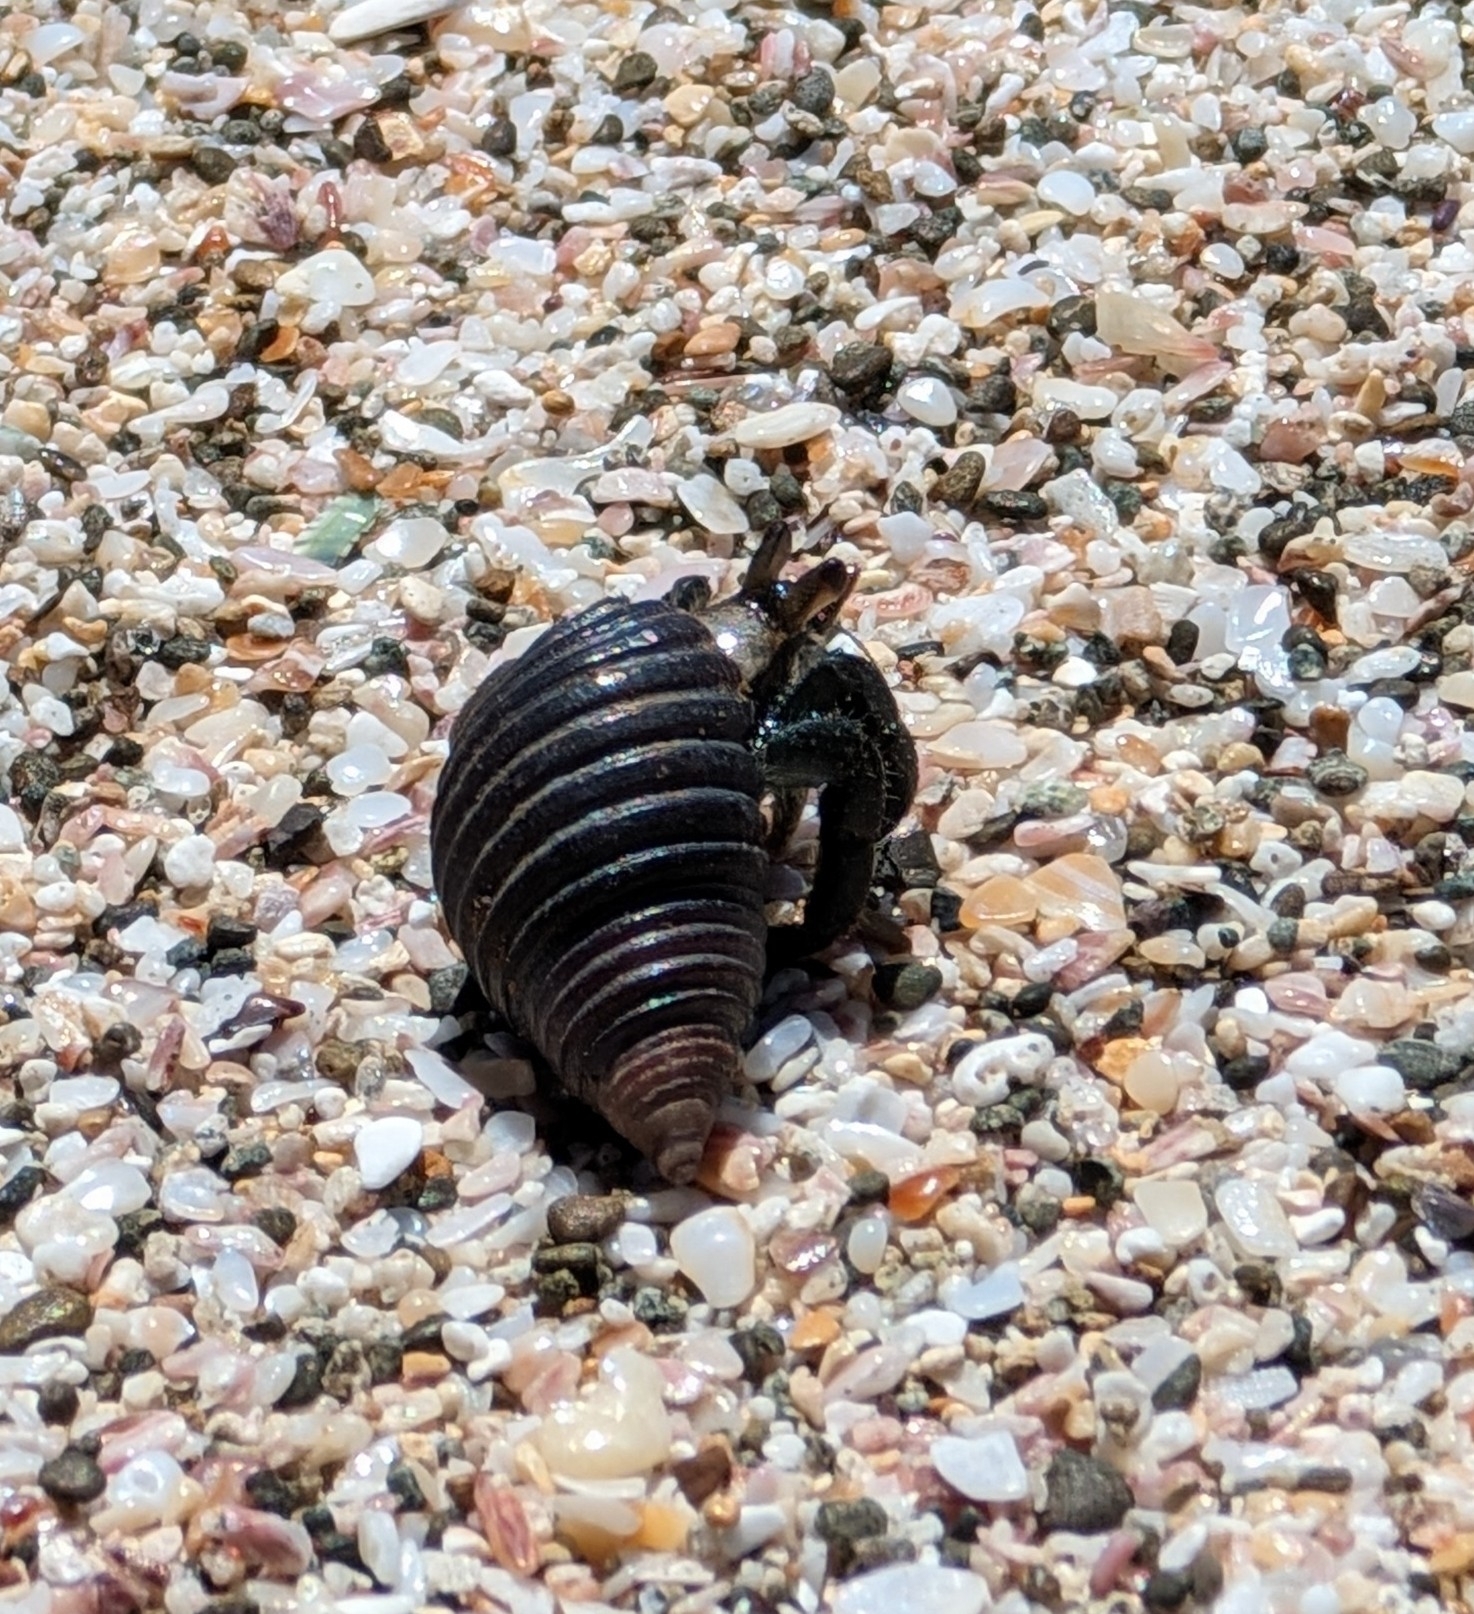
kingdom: Animalia
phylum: Arthropoda
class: Malacostraca
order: Decapoda
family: Coenobitidae
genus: Coenobita
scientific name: Coenobita compressus
